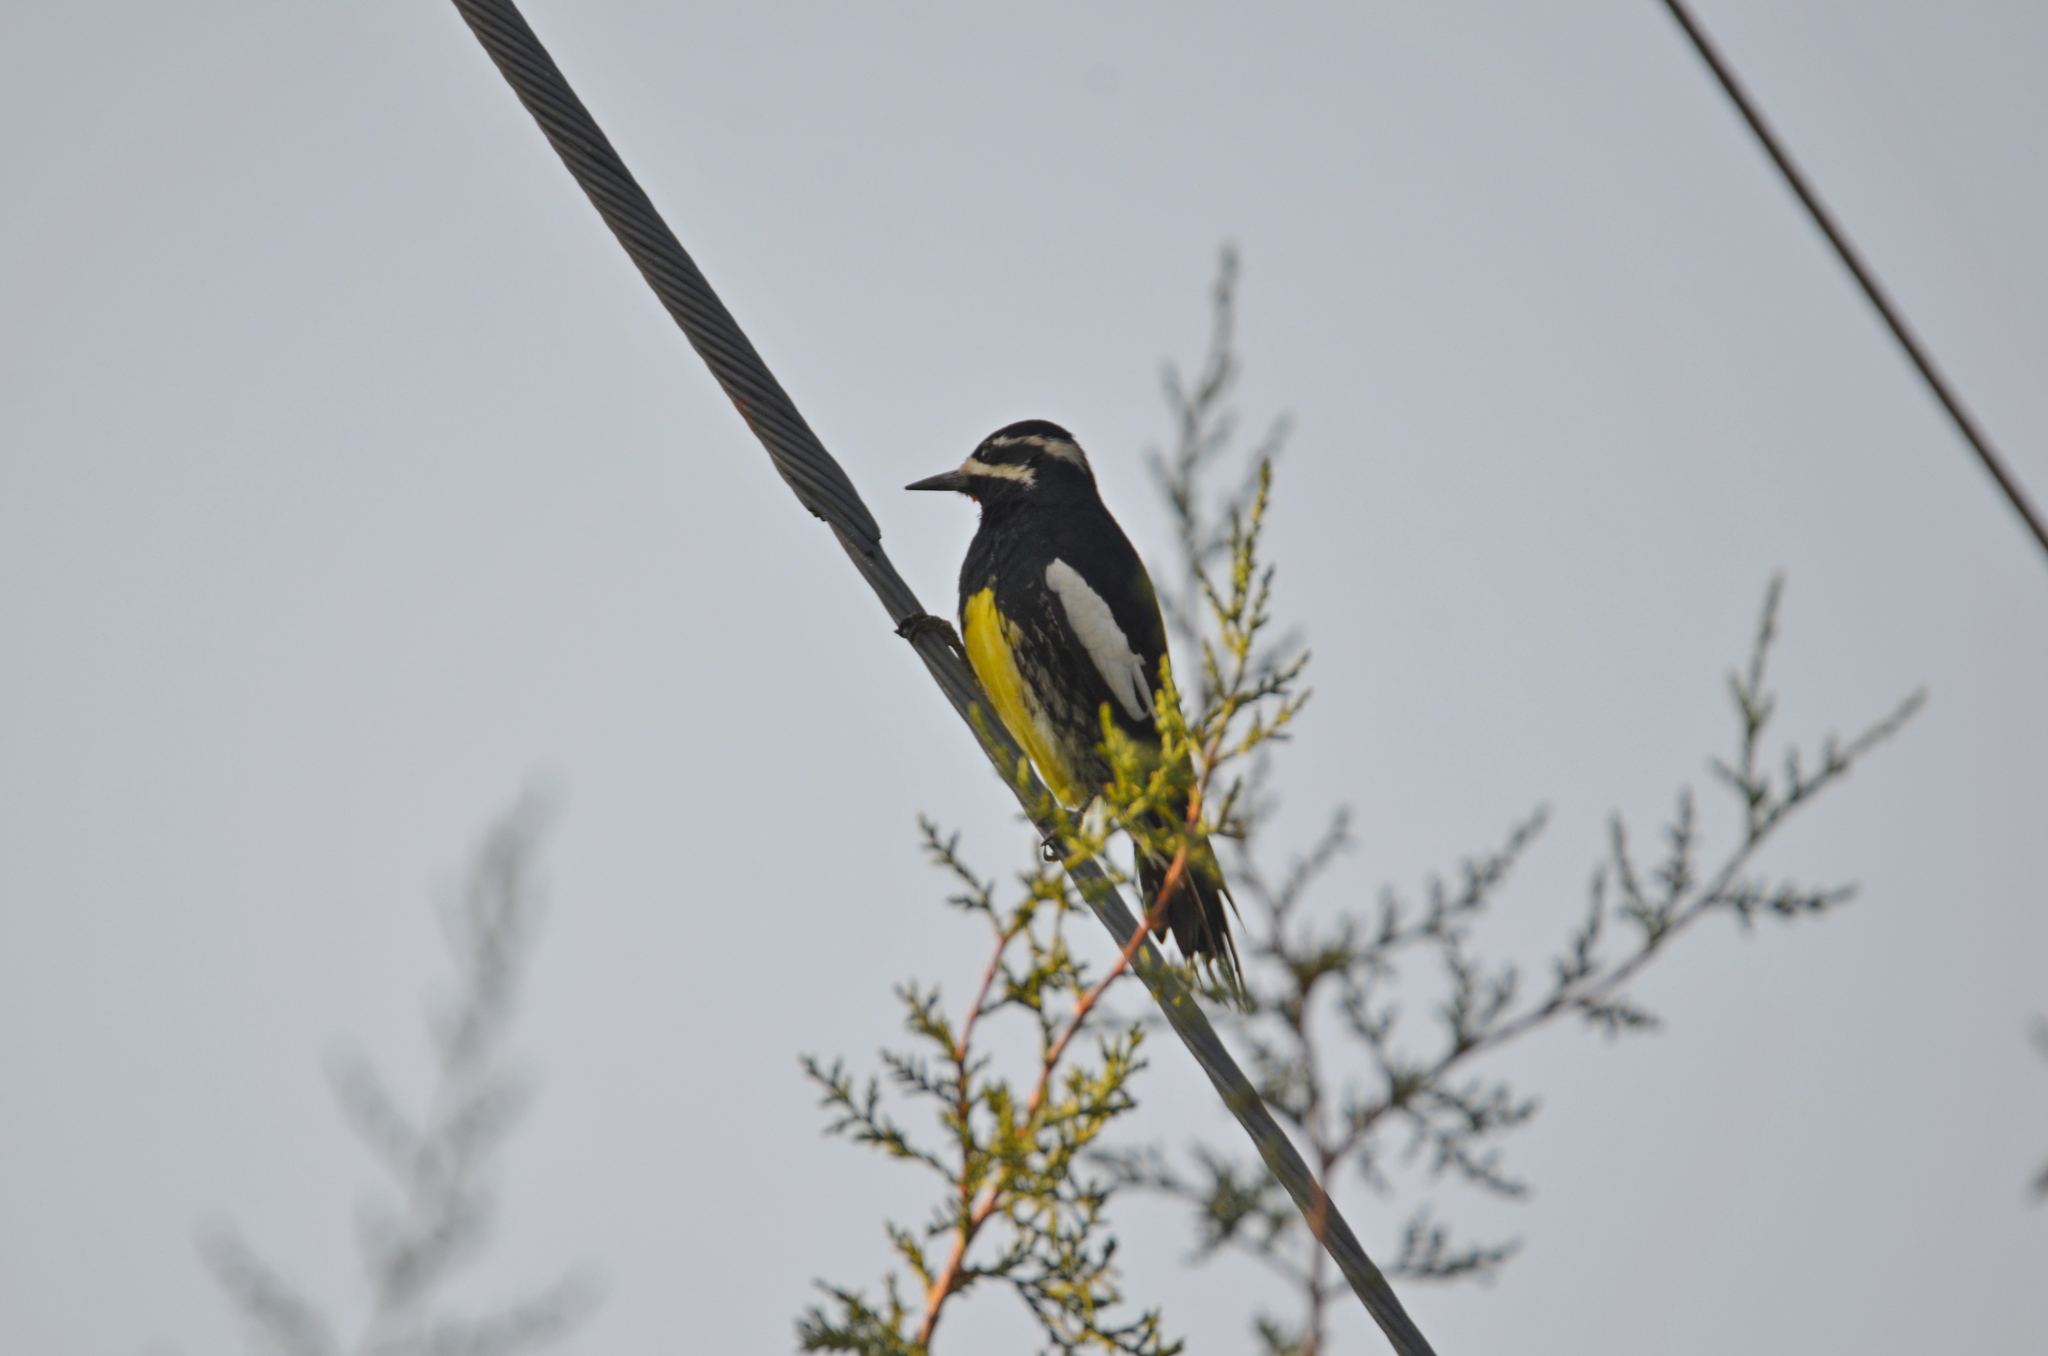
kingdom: Animalia
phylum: Chordata
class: Aves
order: Piciformes
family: Picidae
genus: Sphyrapicus
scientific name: Sphyrapicus thyroideus
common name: Williamson's sapsucker
